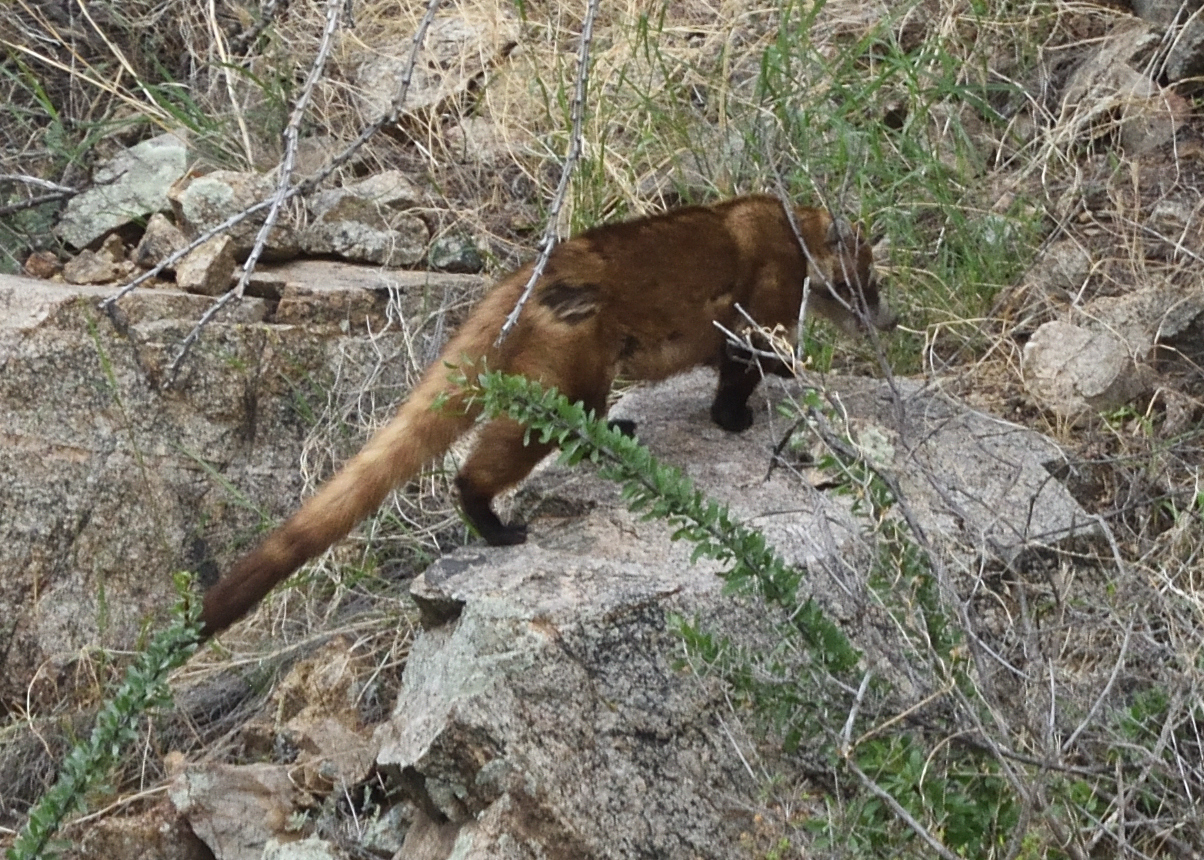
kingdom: Animalia
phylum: Chordata
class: Mammalia
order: Carnivora
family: Procyonidae
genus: Nasua
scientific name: Nasua narica
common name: White-nosed coati
